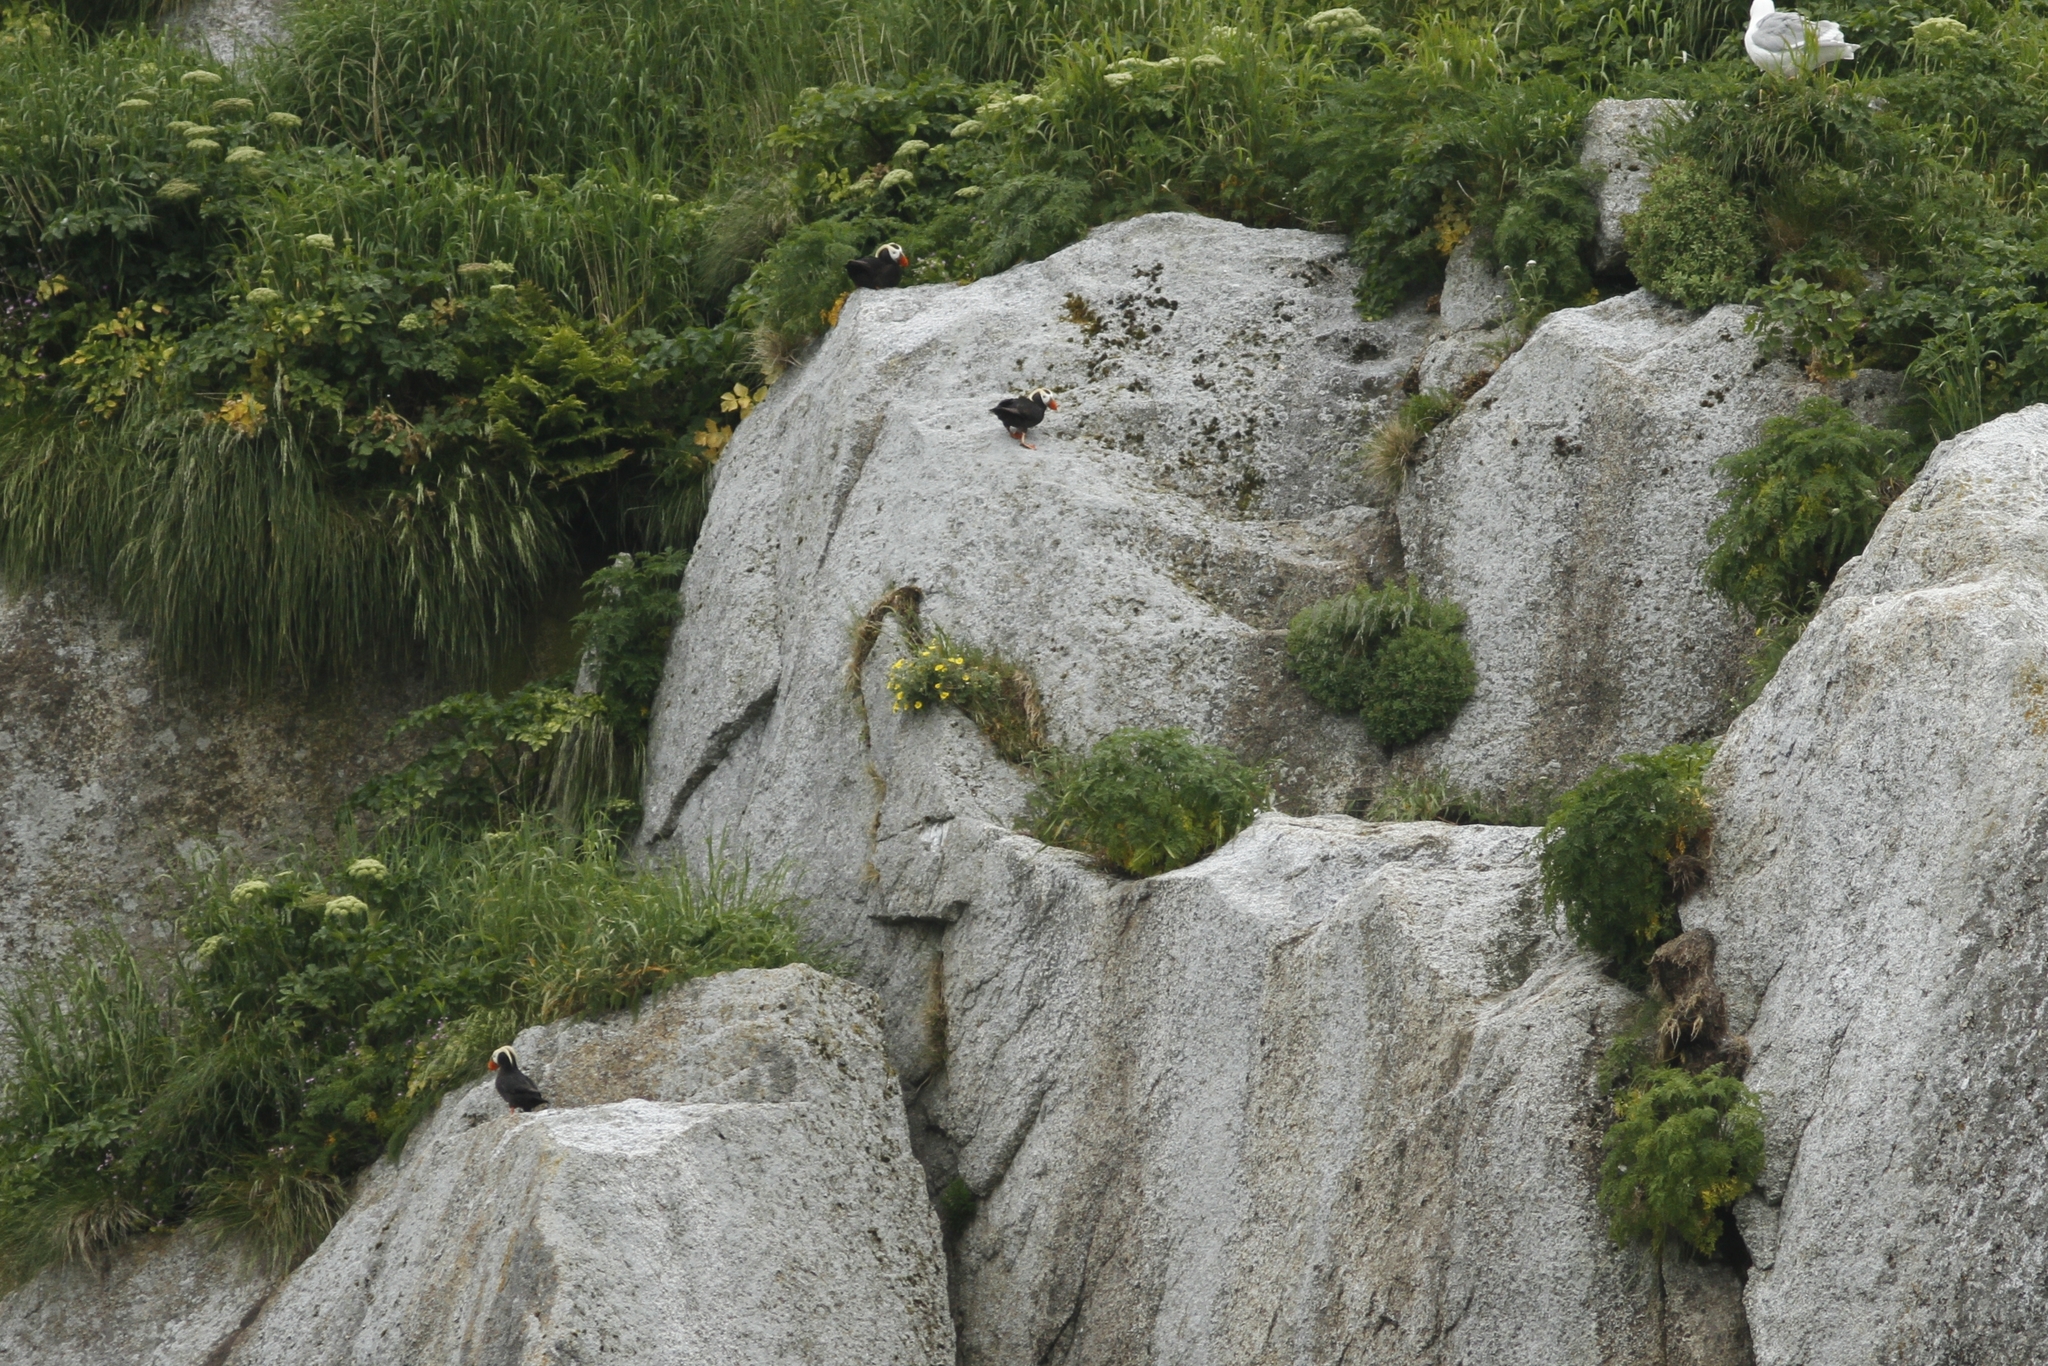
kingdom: Animalia
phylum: Chordata
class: Aves
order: Charadriiformes
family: Alcidae
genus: Fratercula
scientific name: Fratercula cirrhata
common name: Tufted puffin
